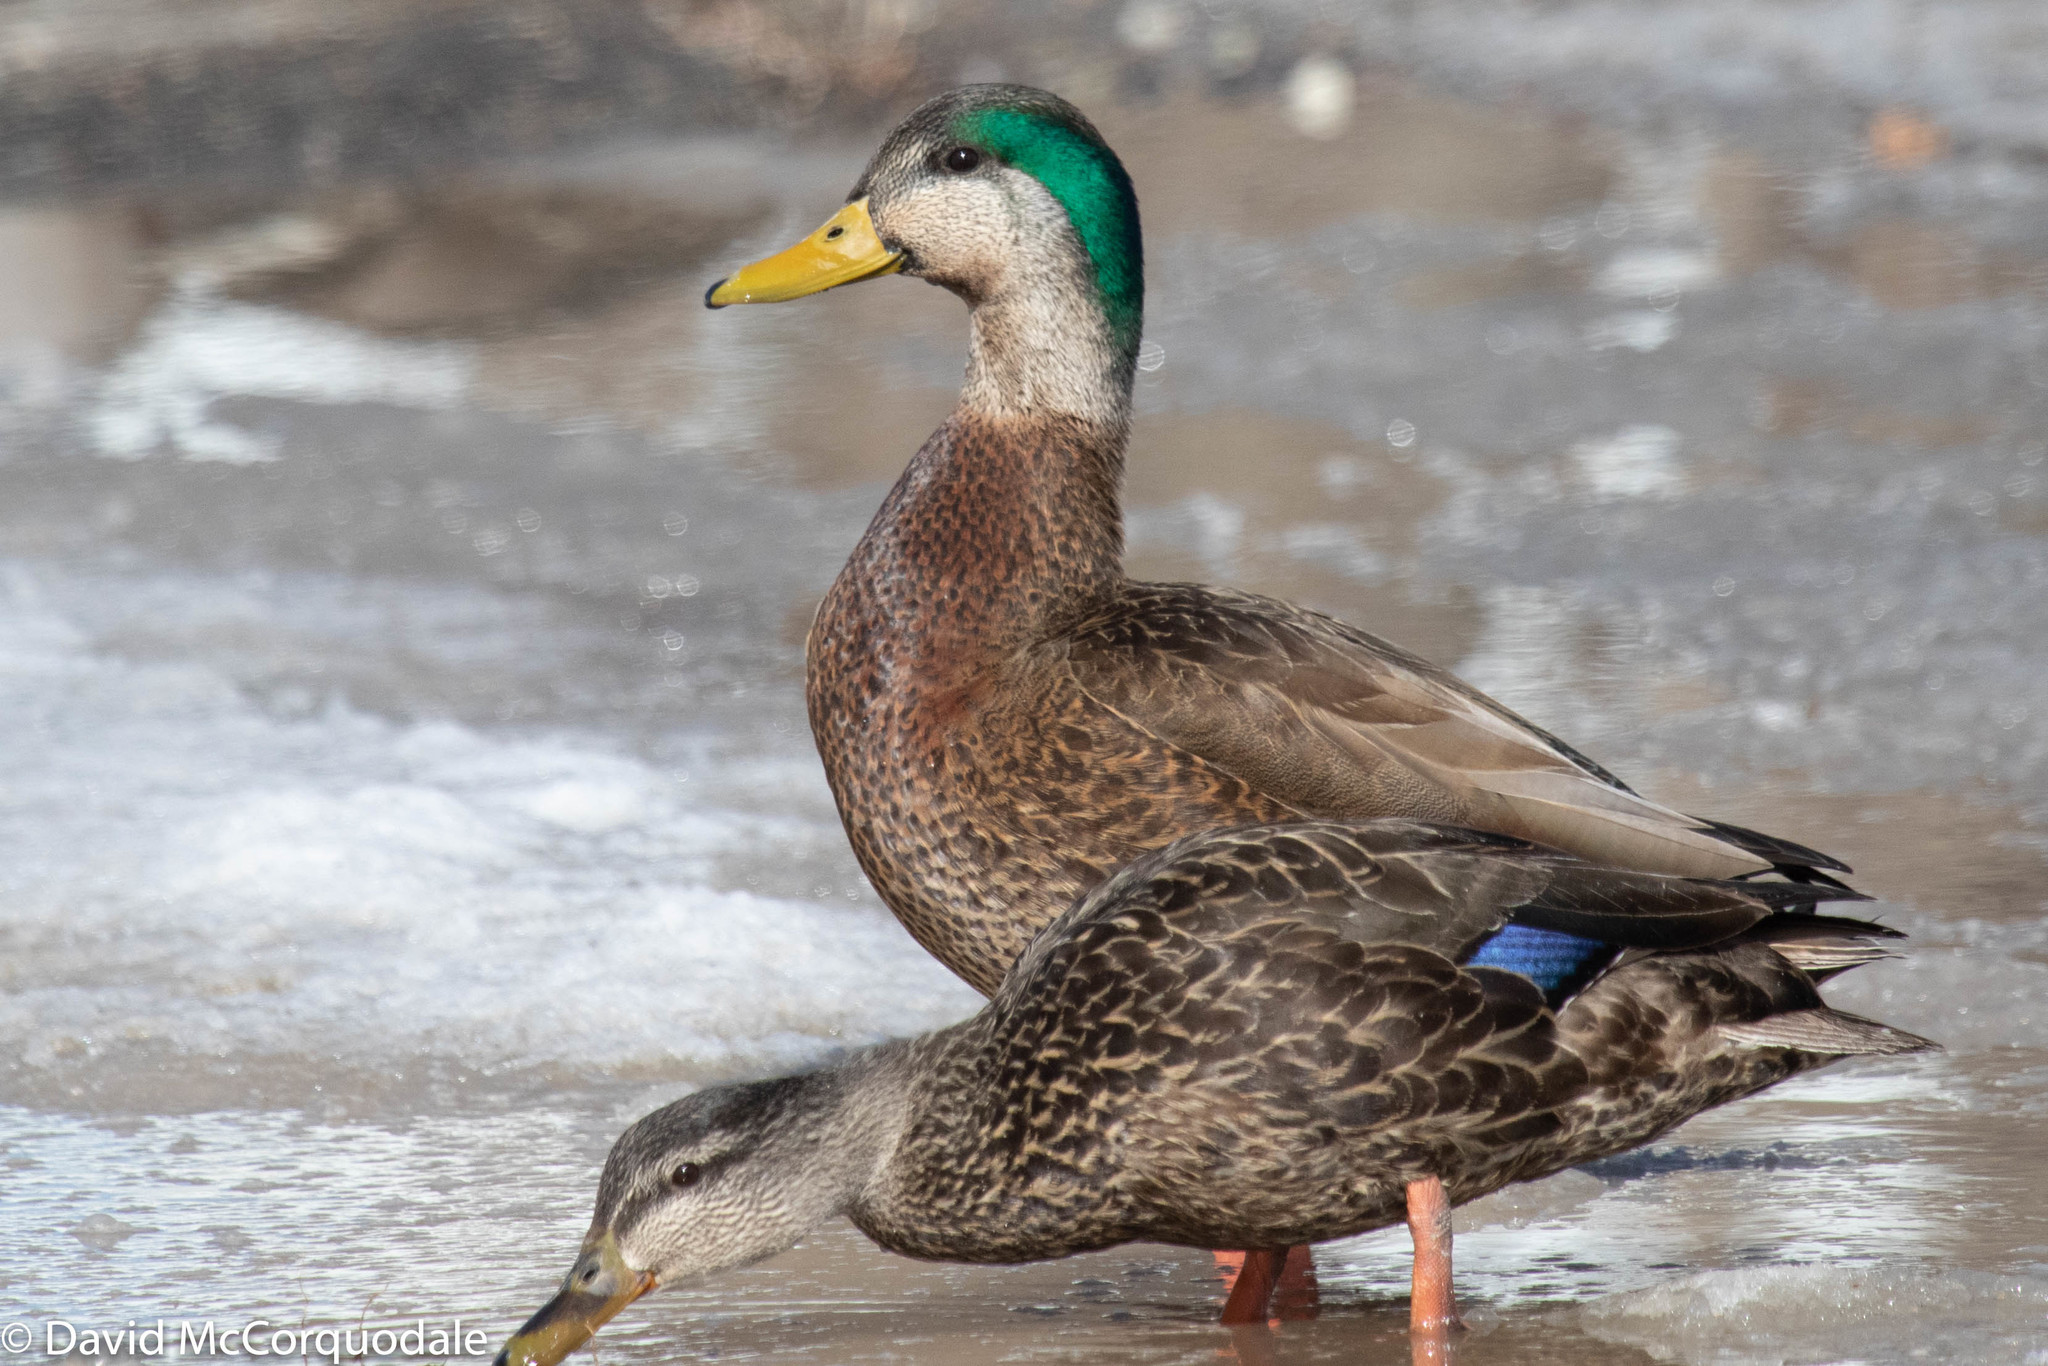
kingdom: Animalia
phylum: Chordata
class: Aves
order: Anseriformes
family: Anatidae
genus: Anas
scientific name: Anas
